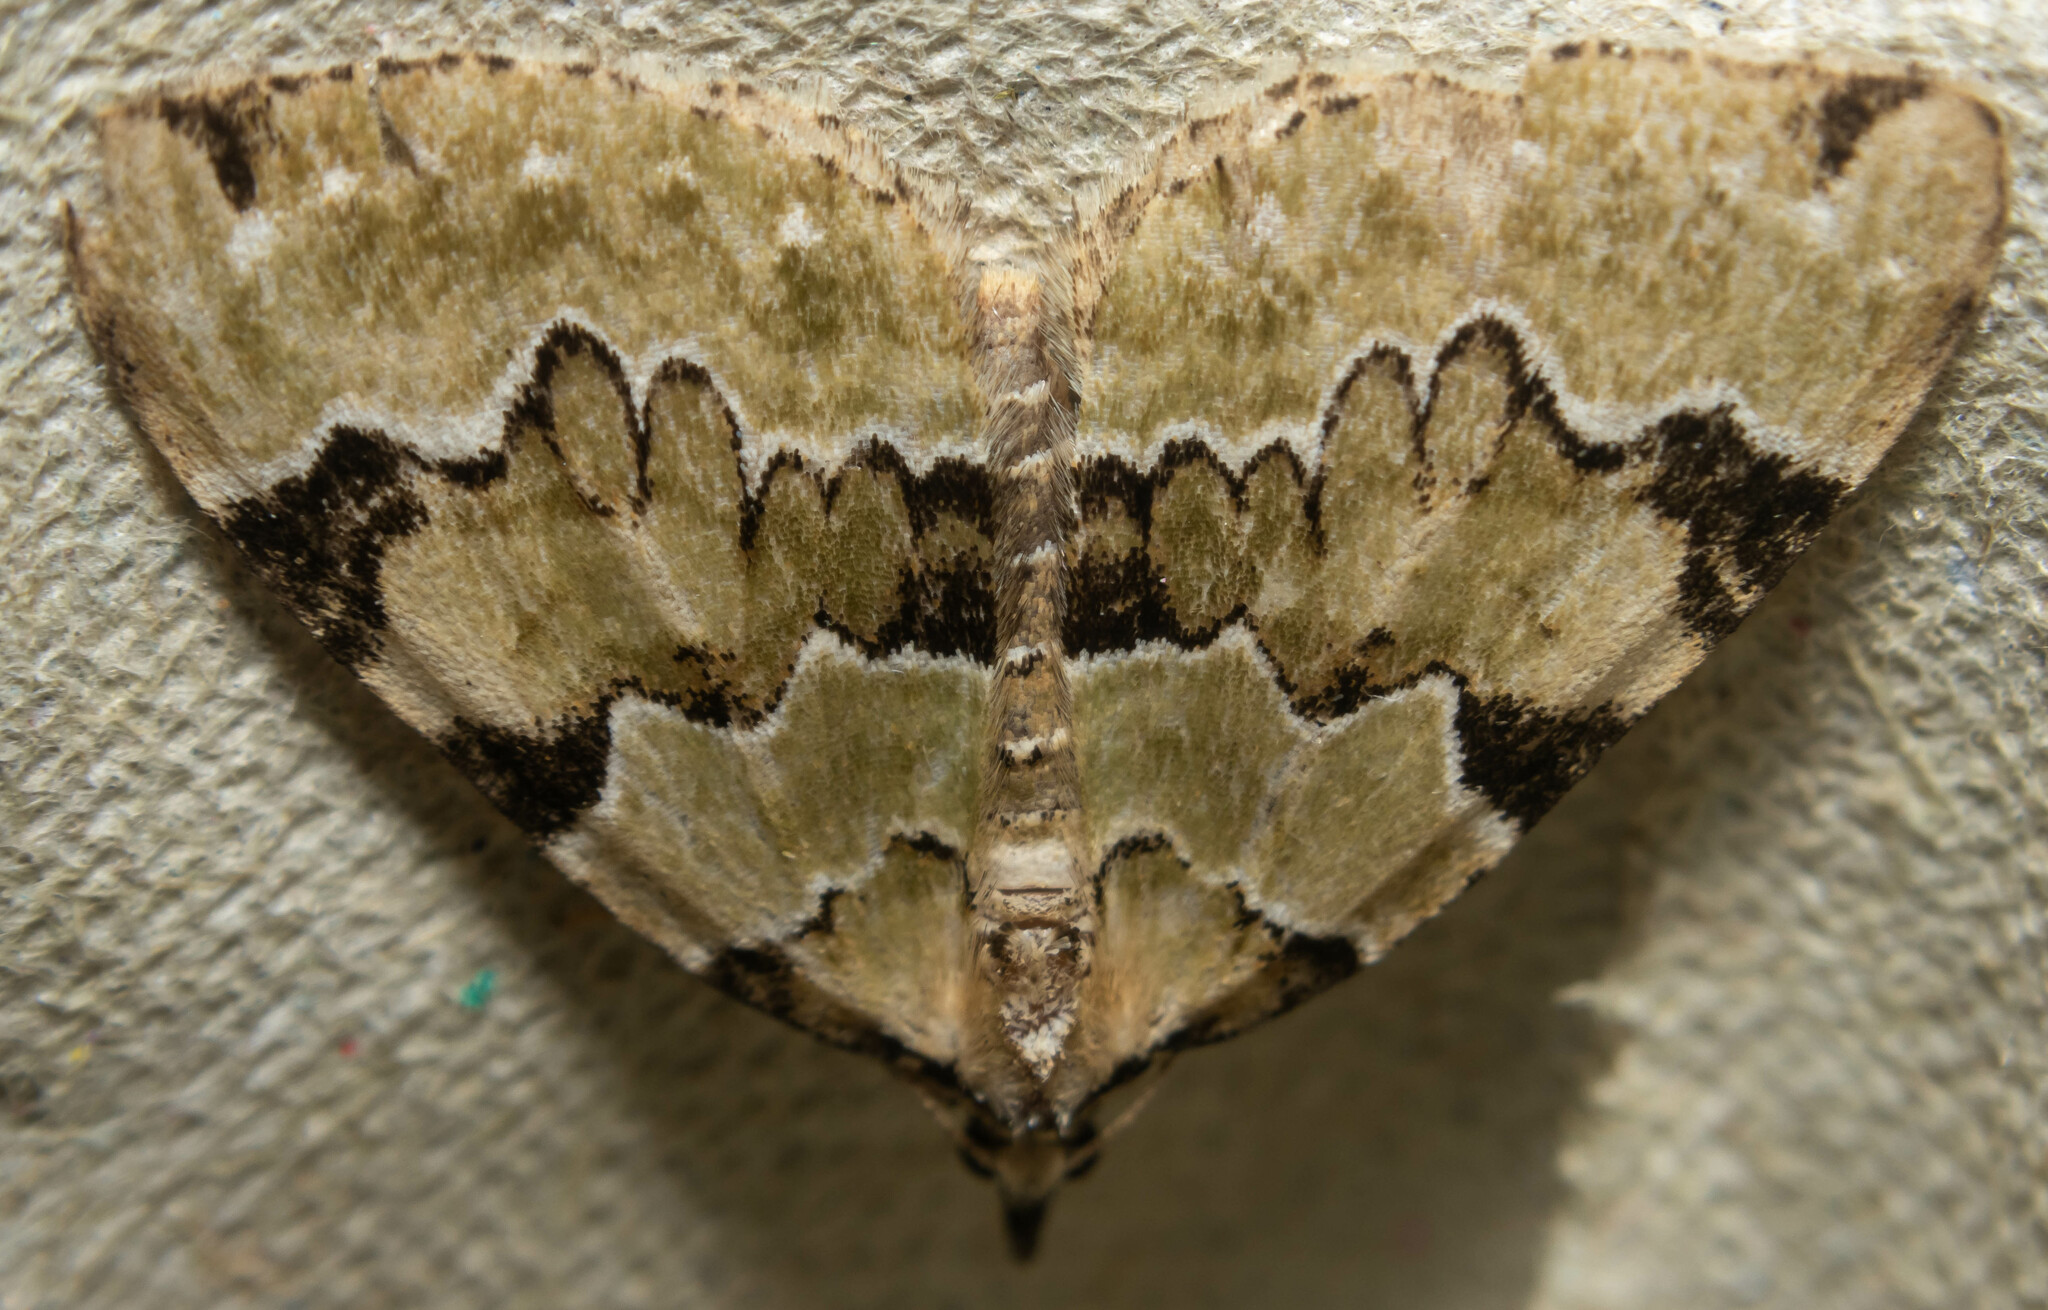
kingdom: Animalia
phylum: Arthropoda
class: Insecta
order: Lepidoptera
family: Geometridae
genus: Colostygia
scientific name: Colostygia pectinataria
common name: Green carpet
